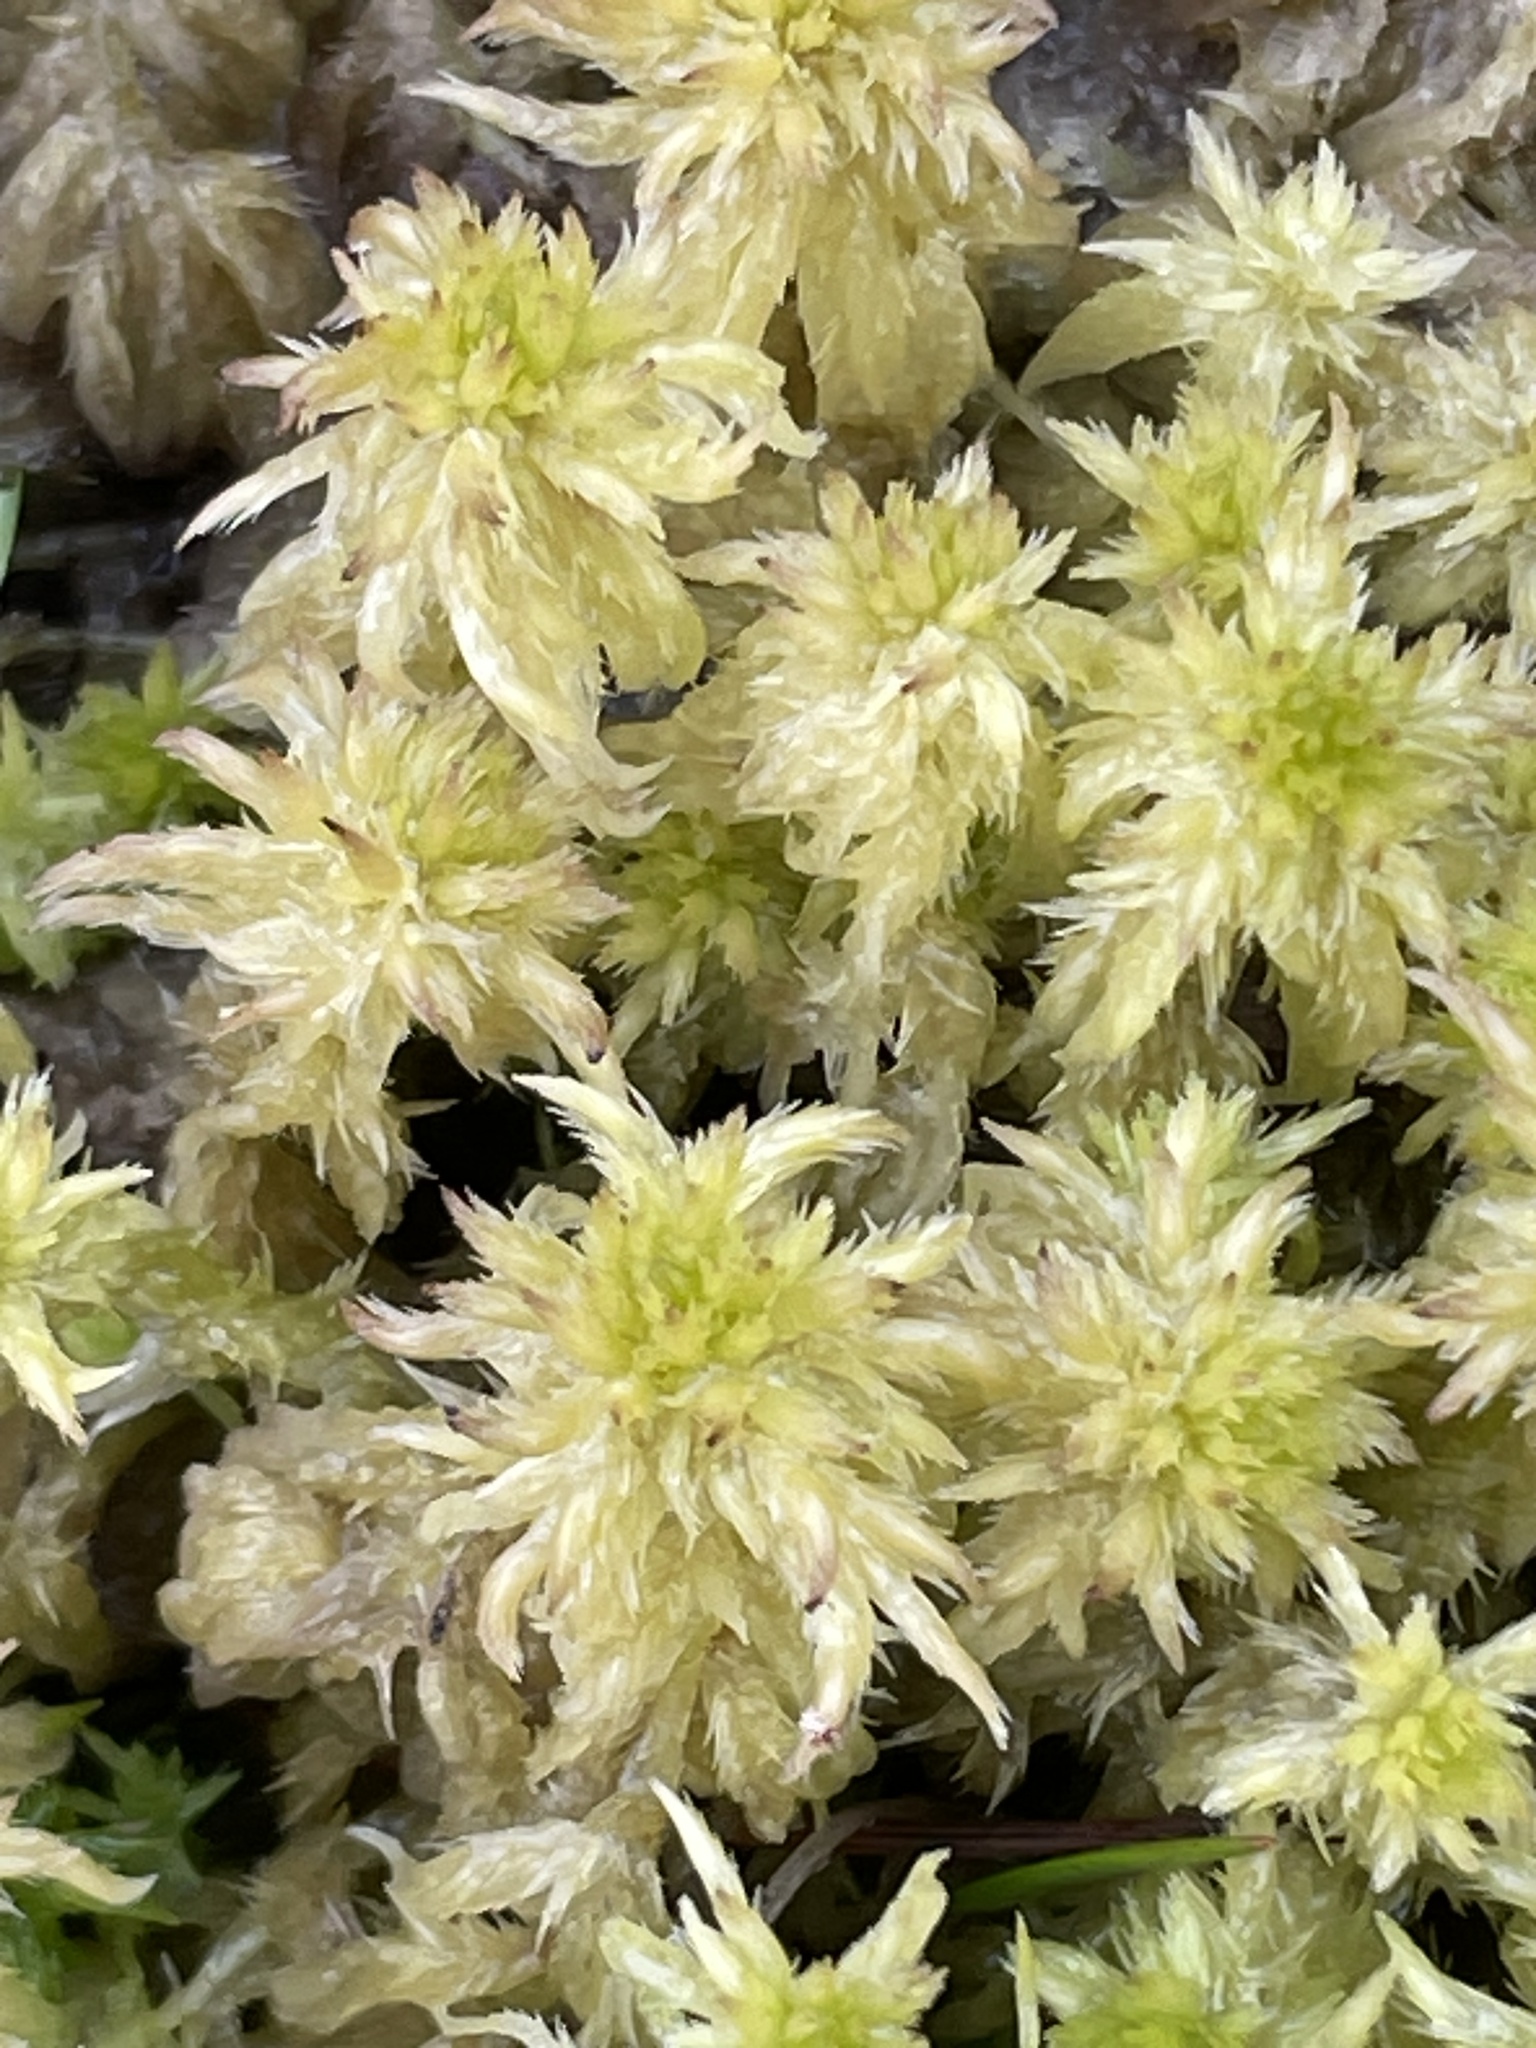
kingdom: Plantae
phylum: Bryophyta
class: Sphagnopsida
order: Sphagnales
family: Sphagnaceae
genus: Sphagnum
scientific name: Sphagnum cuspidatum
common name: Feathery peat moss
